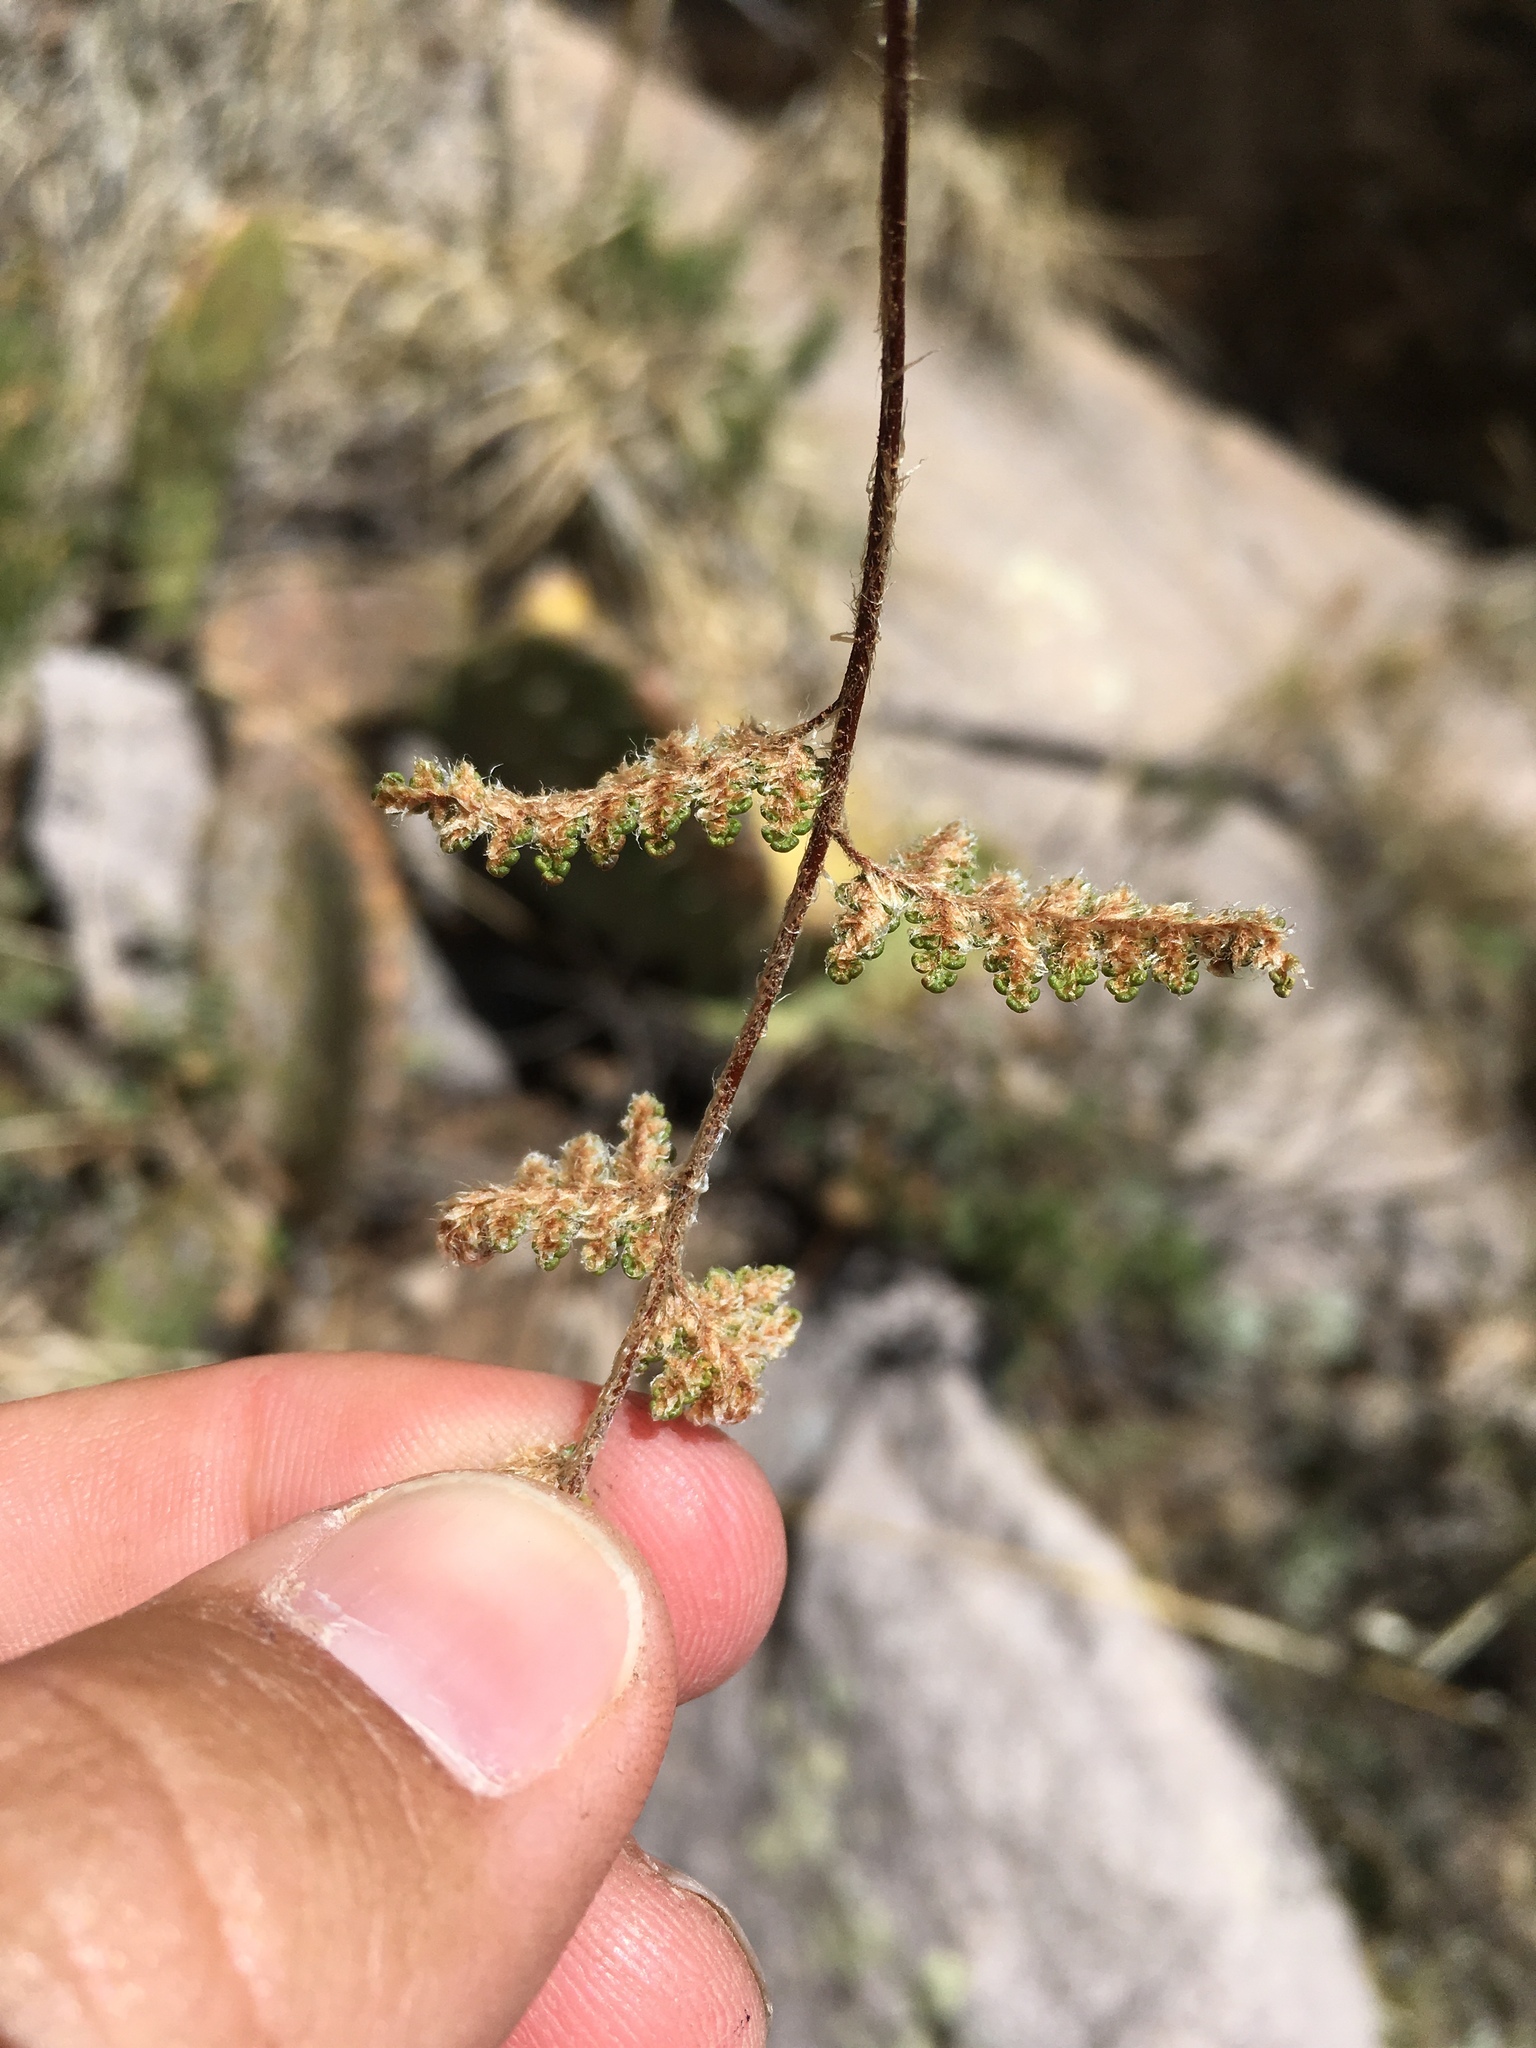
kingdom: Plantae
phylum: Tracheophyta
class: Polypodiopsida
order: Polypodiales
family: Pteridaceae
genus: Myriopteris
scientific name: Myriopteris wootonii
